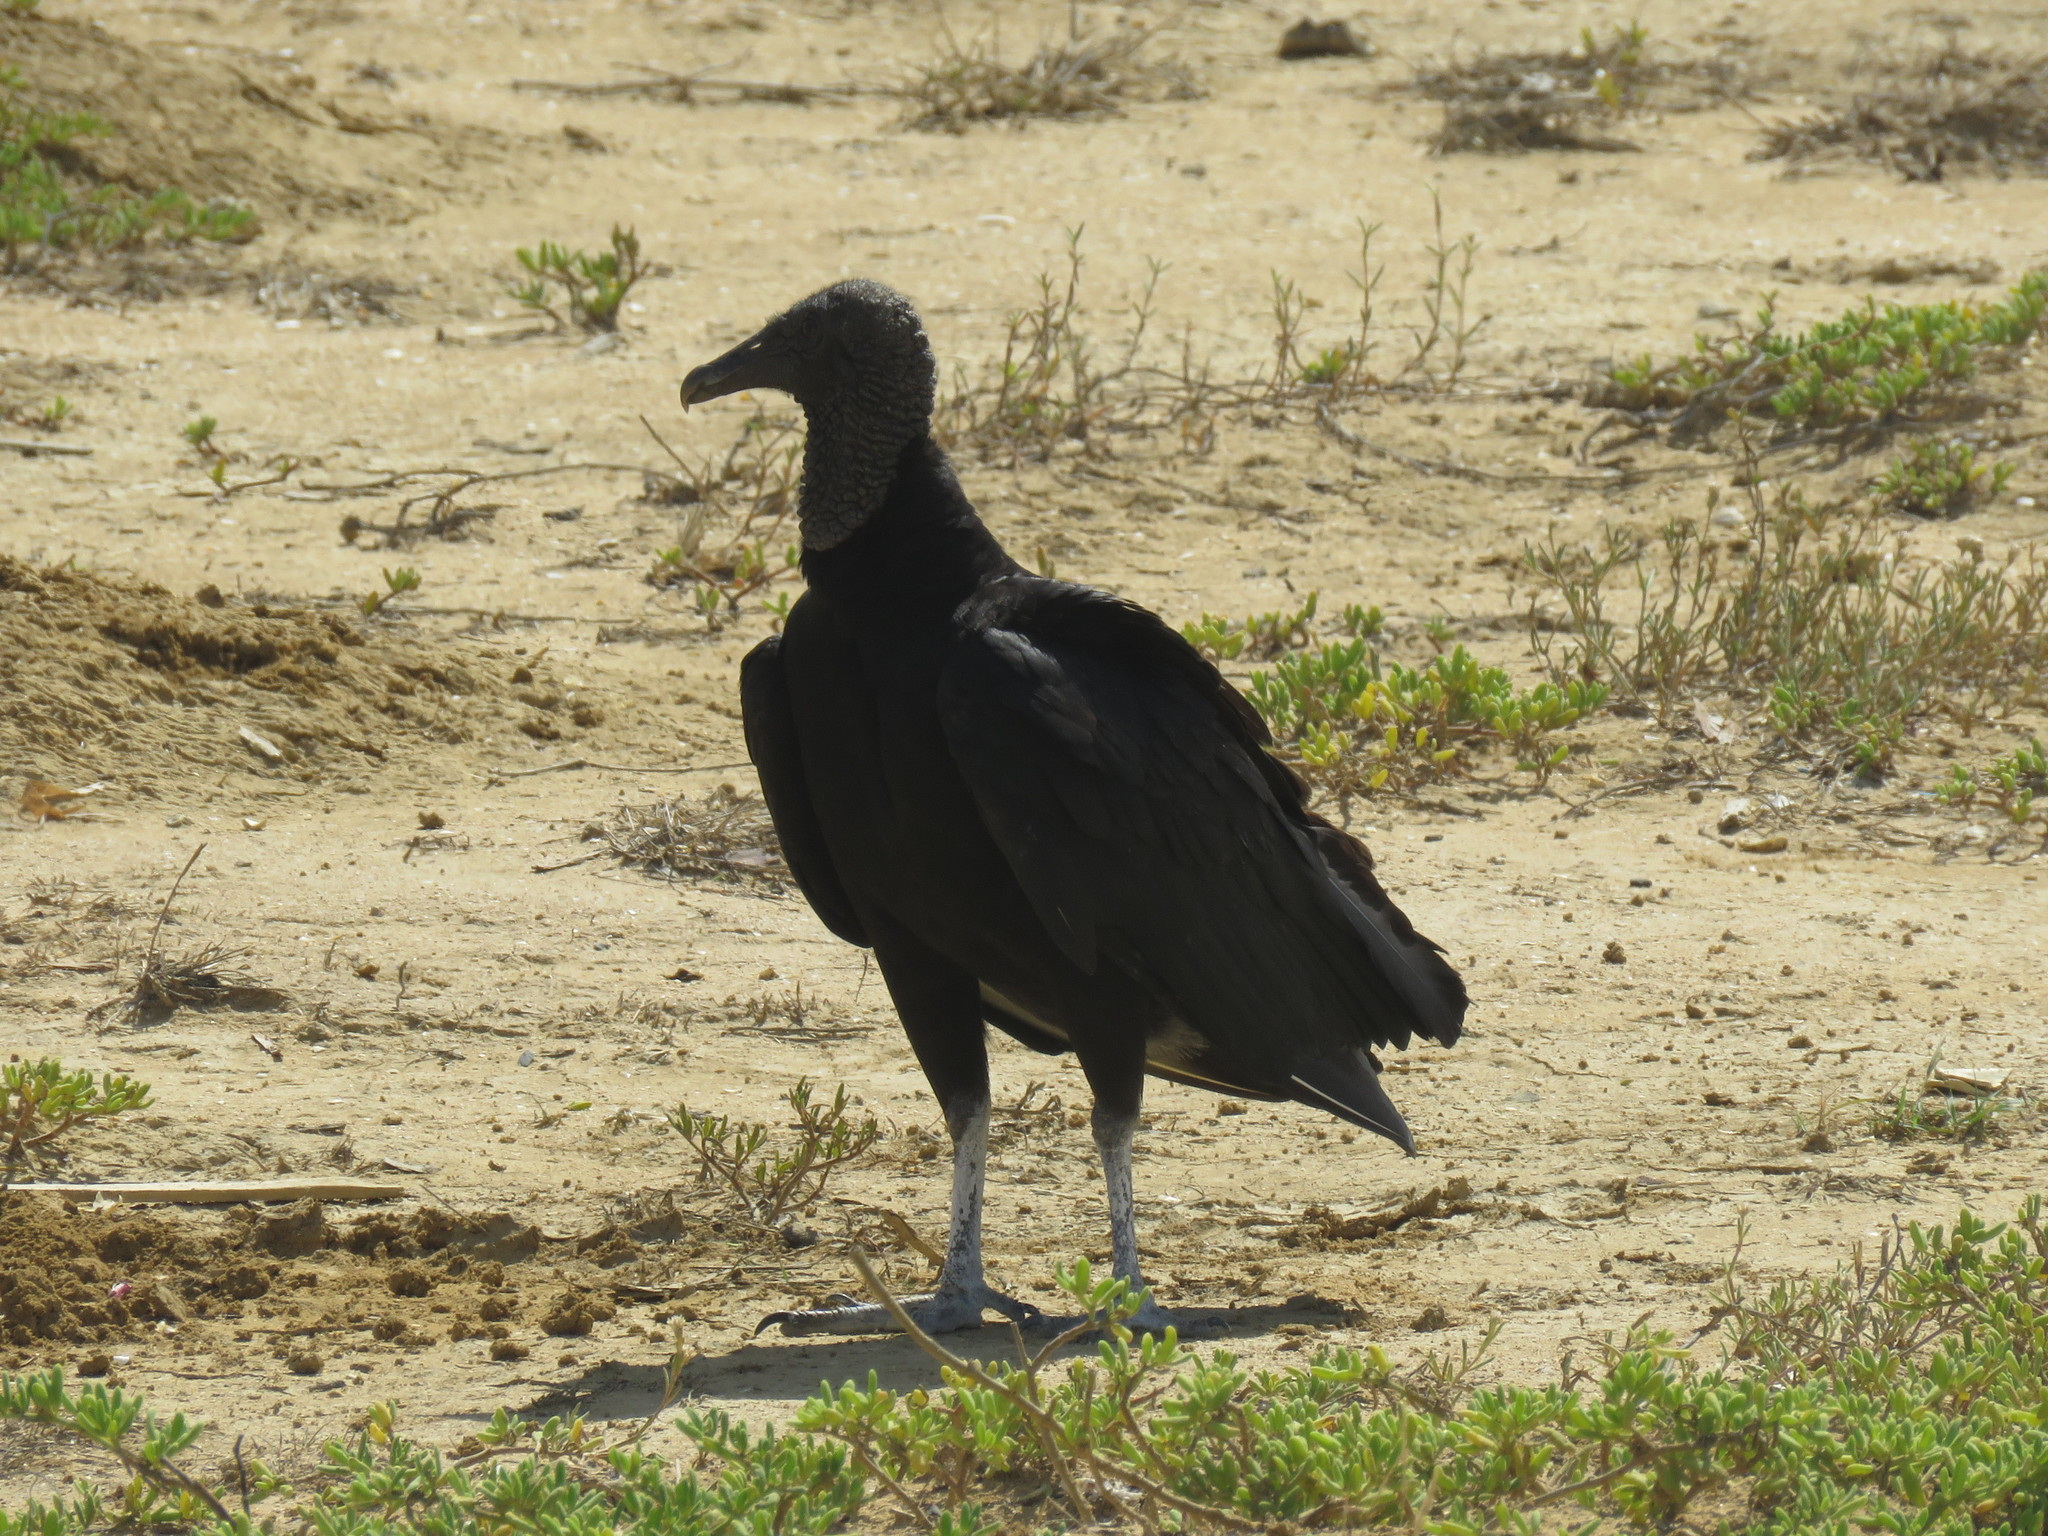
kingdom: Animalia
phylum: Chordata
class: Aves
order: Accipitriformes
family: Cathartidae
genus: Coragyps
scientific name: Coragyps atratus
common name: Black vulture
